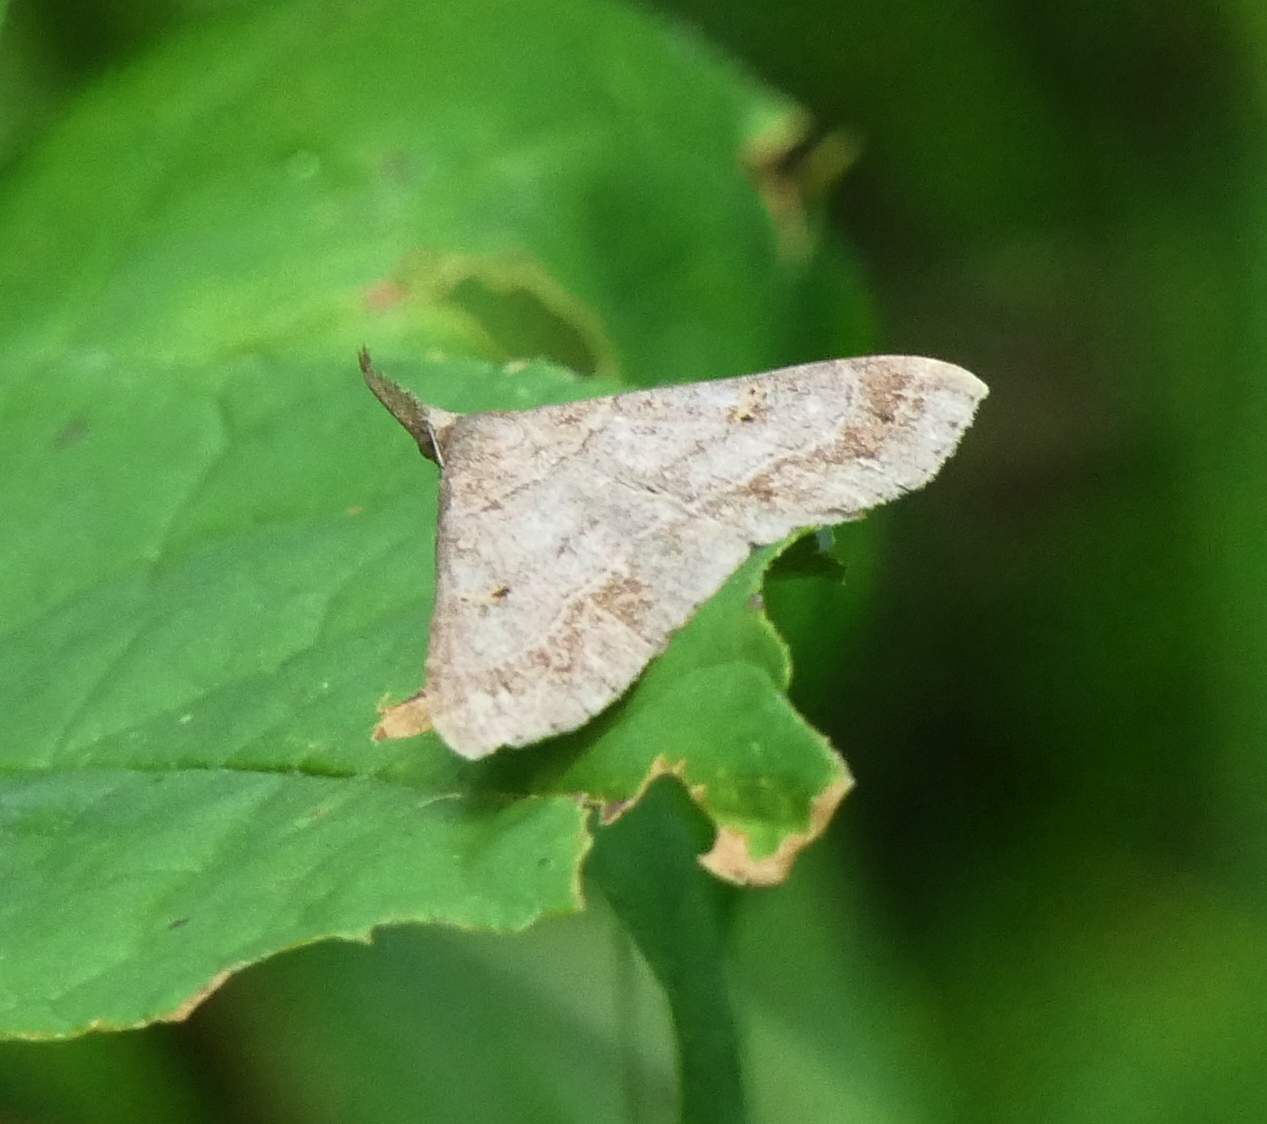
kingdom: Animalia
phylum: Arthropoda
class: Insecta
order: Lepidoptera
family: Erebidae
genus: Renia
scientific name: Renia flavipunctalis
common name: Yellow-spotted renia moth
